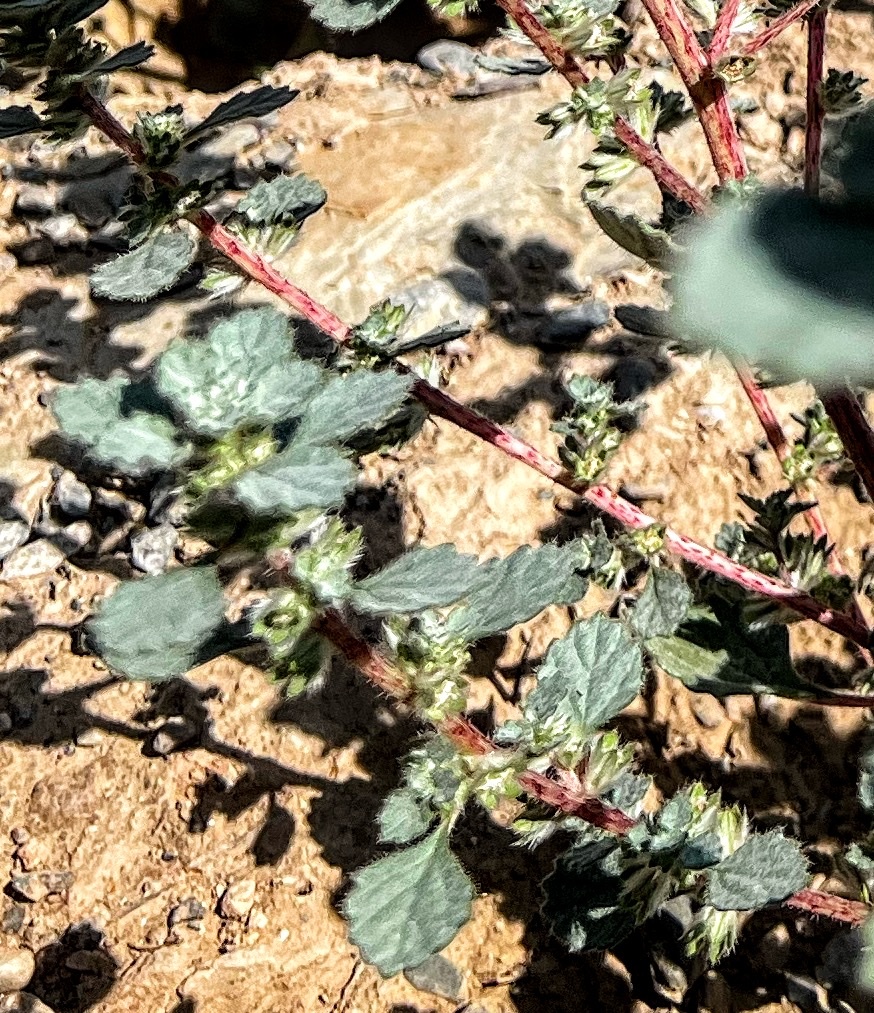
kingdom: Plantae
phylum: Tracheophyta
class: Magnoliopsida
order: Rosales
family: Urticaceae
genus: Forsskaolea
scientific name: Forsskaolea tenacissima
